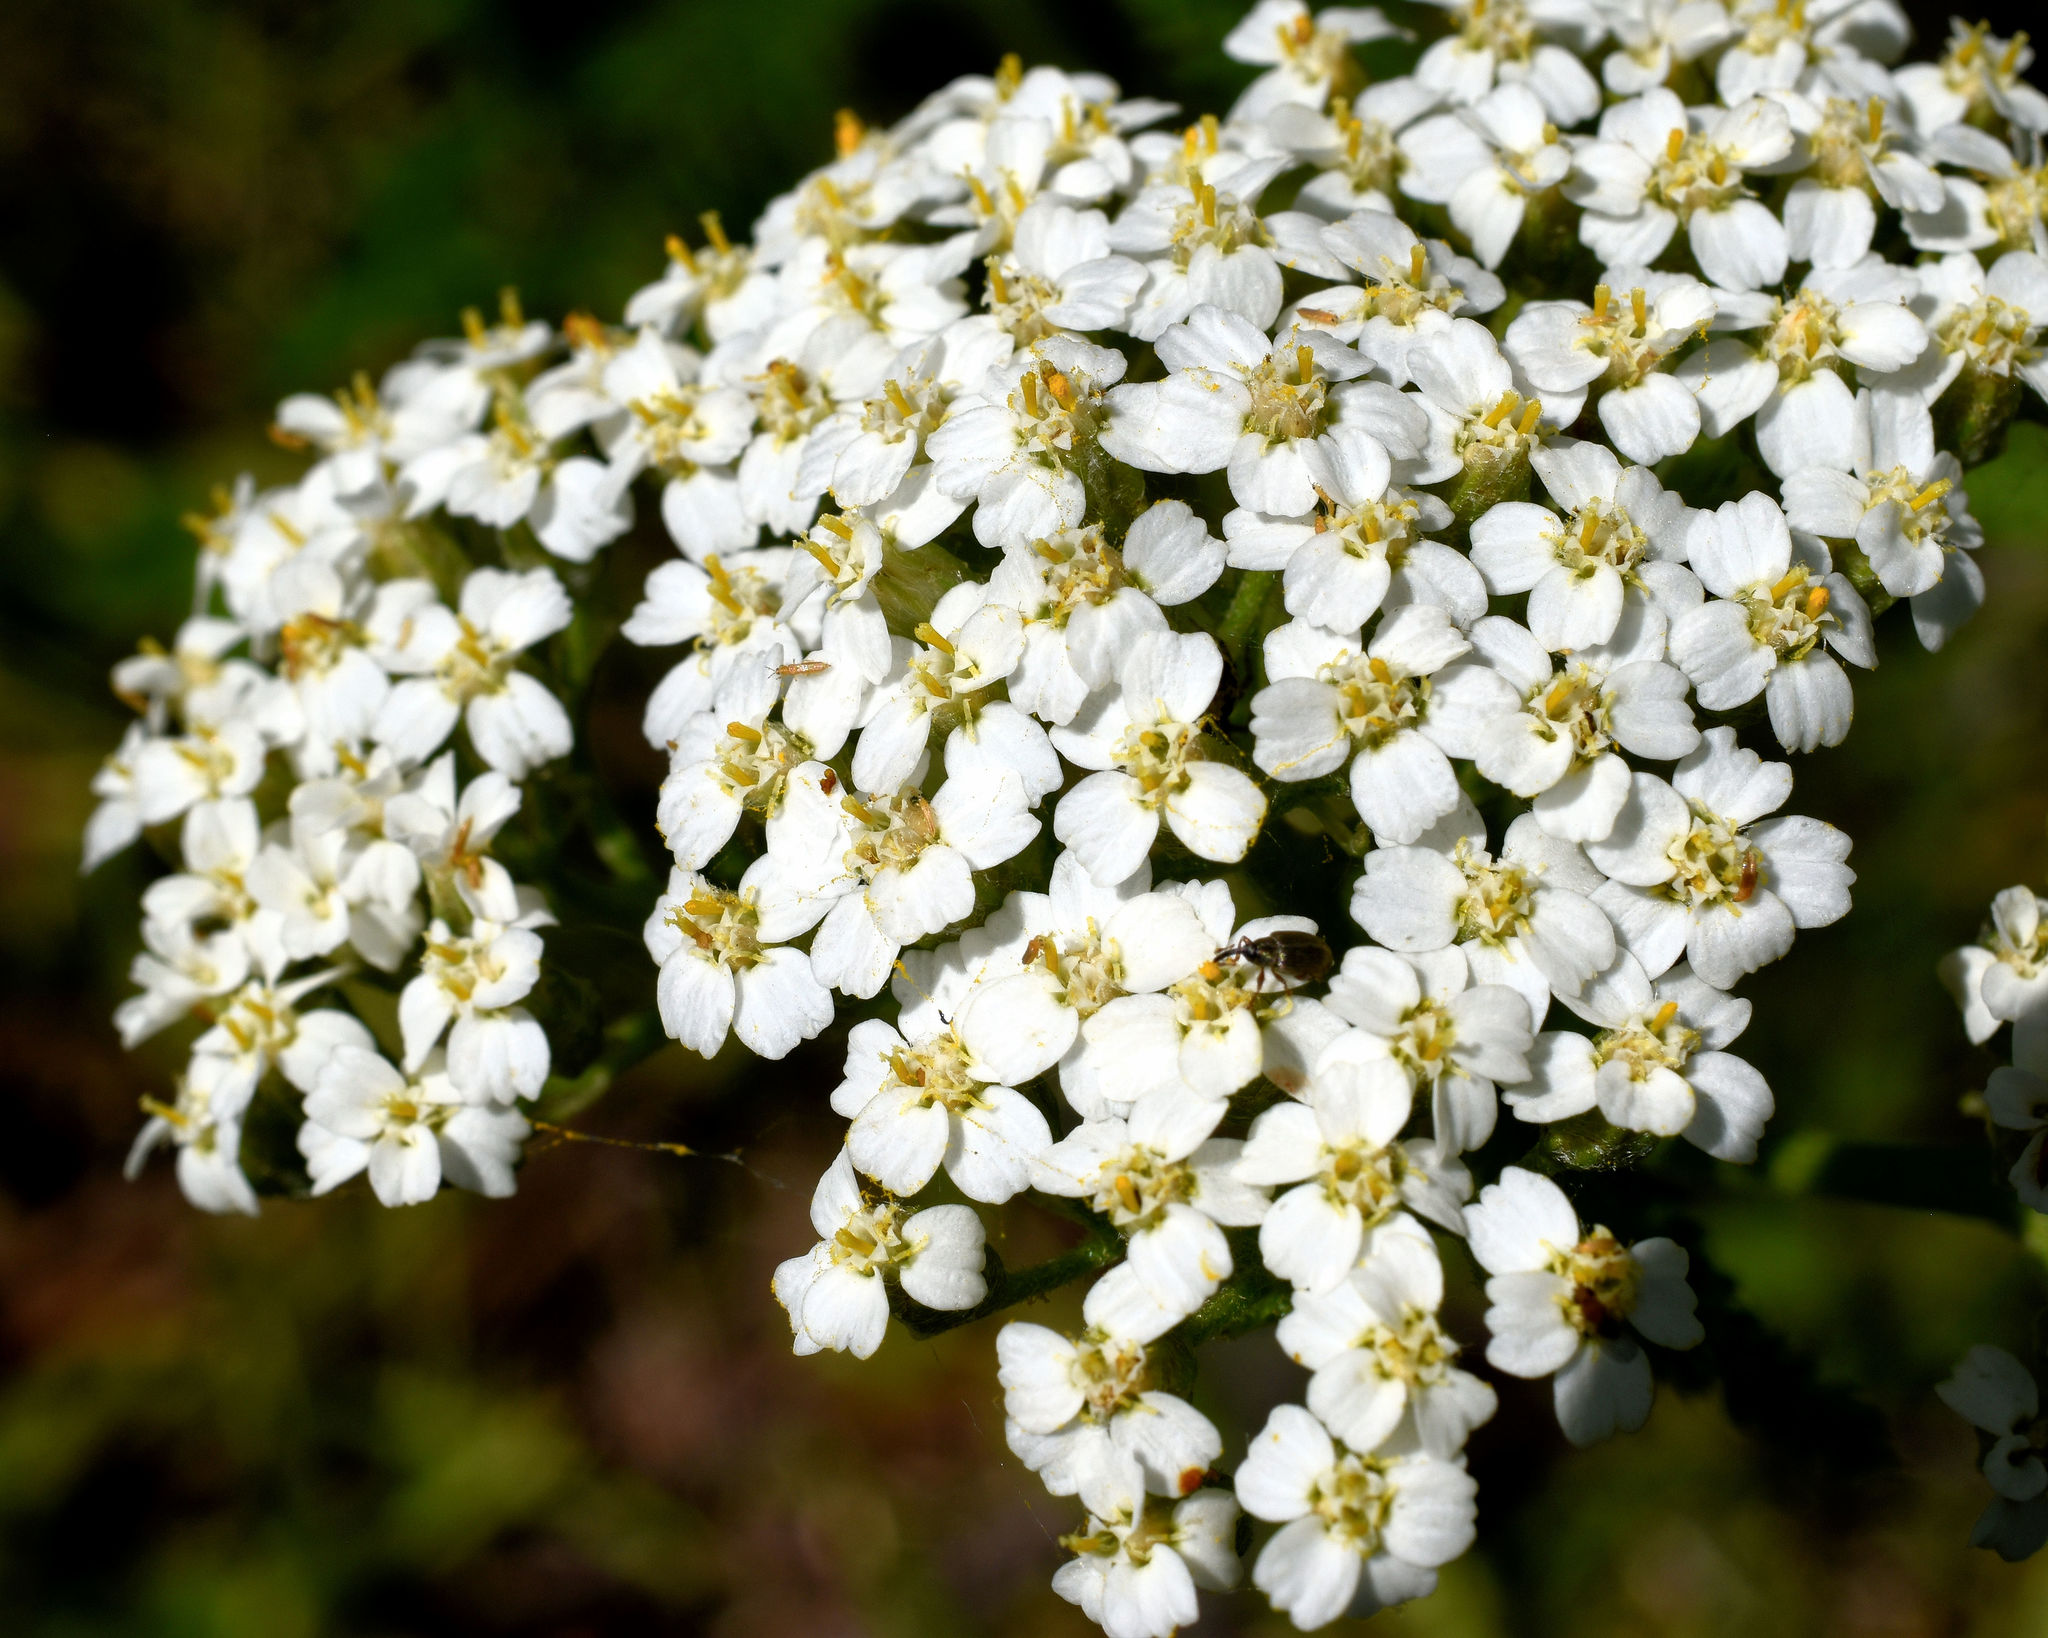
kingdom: Plantae
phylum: Tracheophyta
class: Magnoliopsida
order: Asterales
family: Asteraceae
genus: Achillea
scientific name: Achillea millefolium
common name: Yarrow
